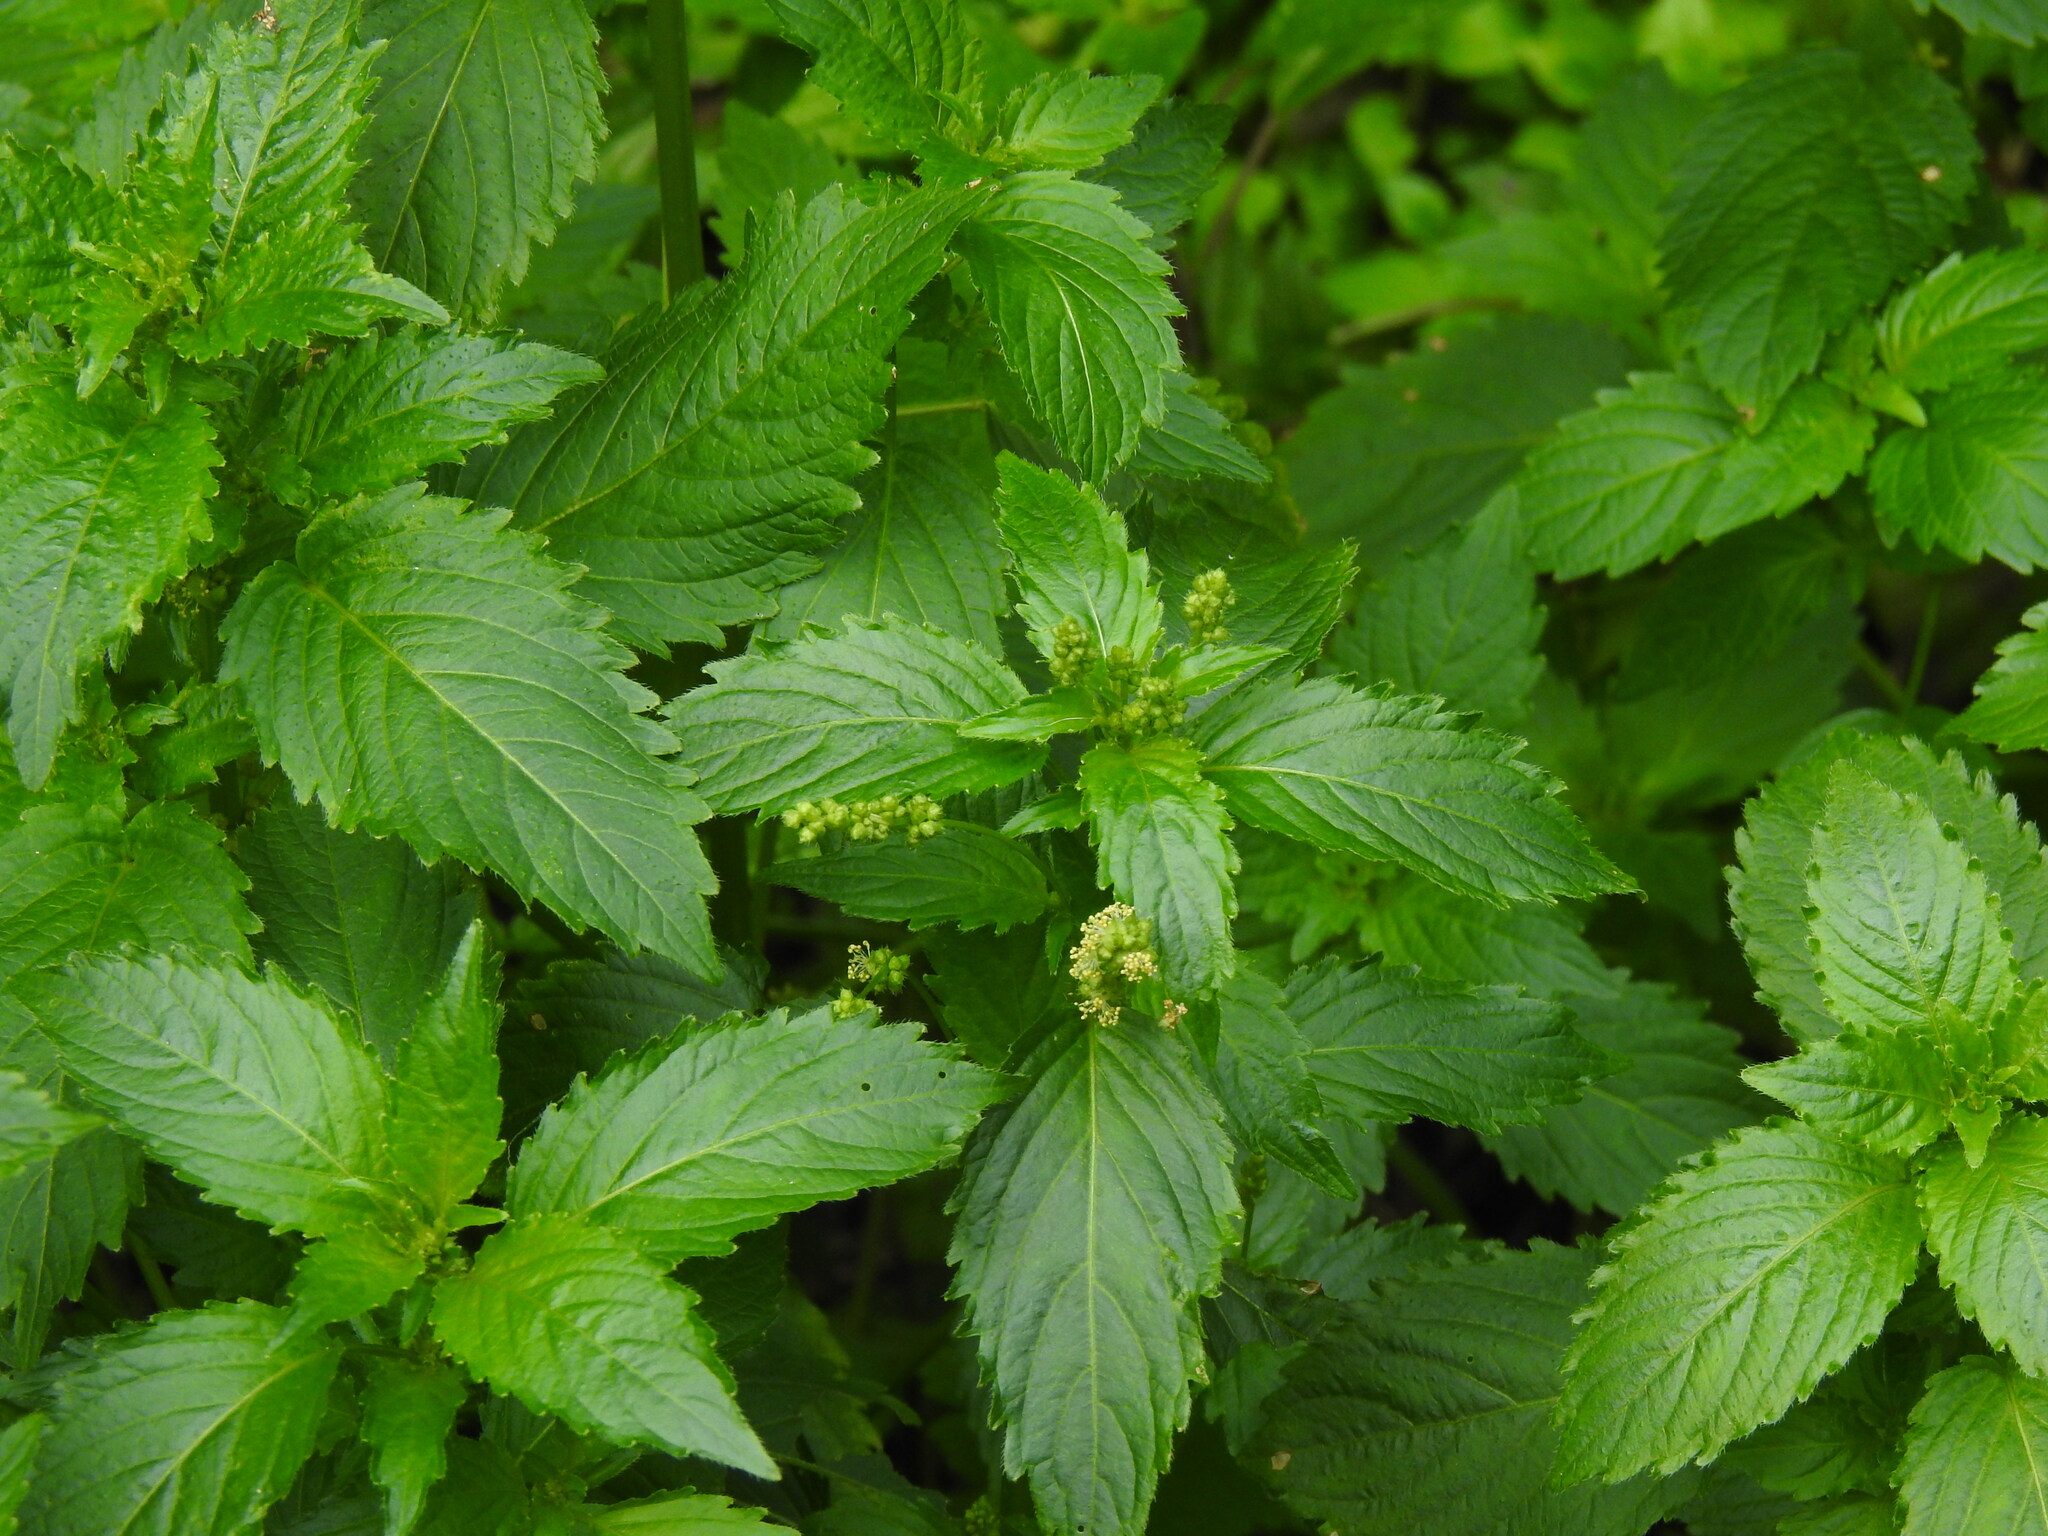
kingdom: Plantae
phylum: Tracheophyta
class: Magnoliopsida
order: Malpighiales
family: Euphorbiaceae
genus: Mercurialis
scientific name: Mercurialis annua
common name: Annual mercury
